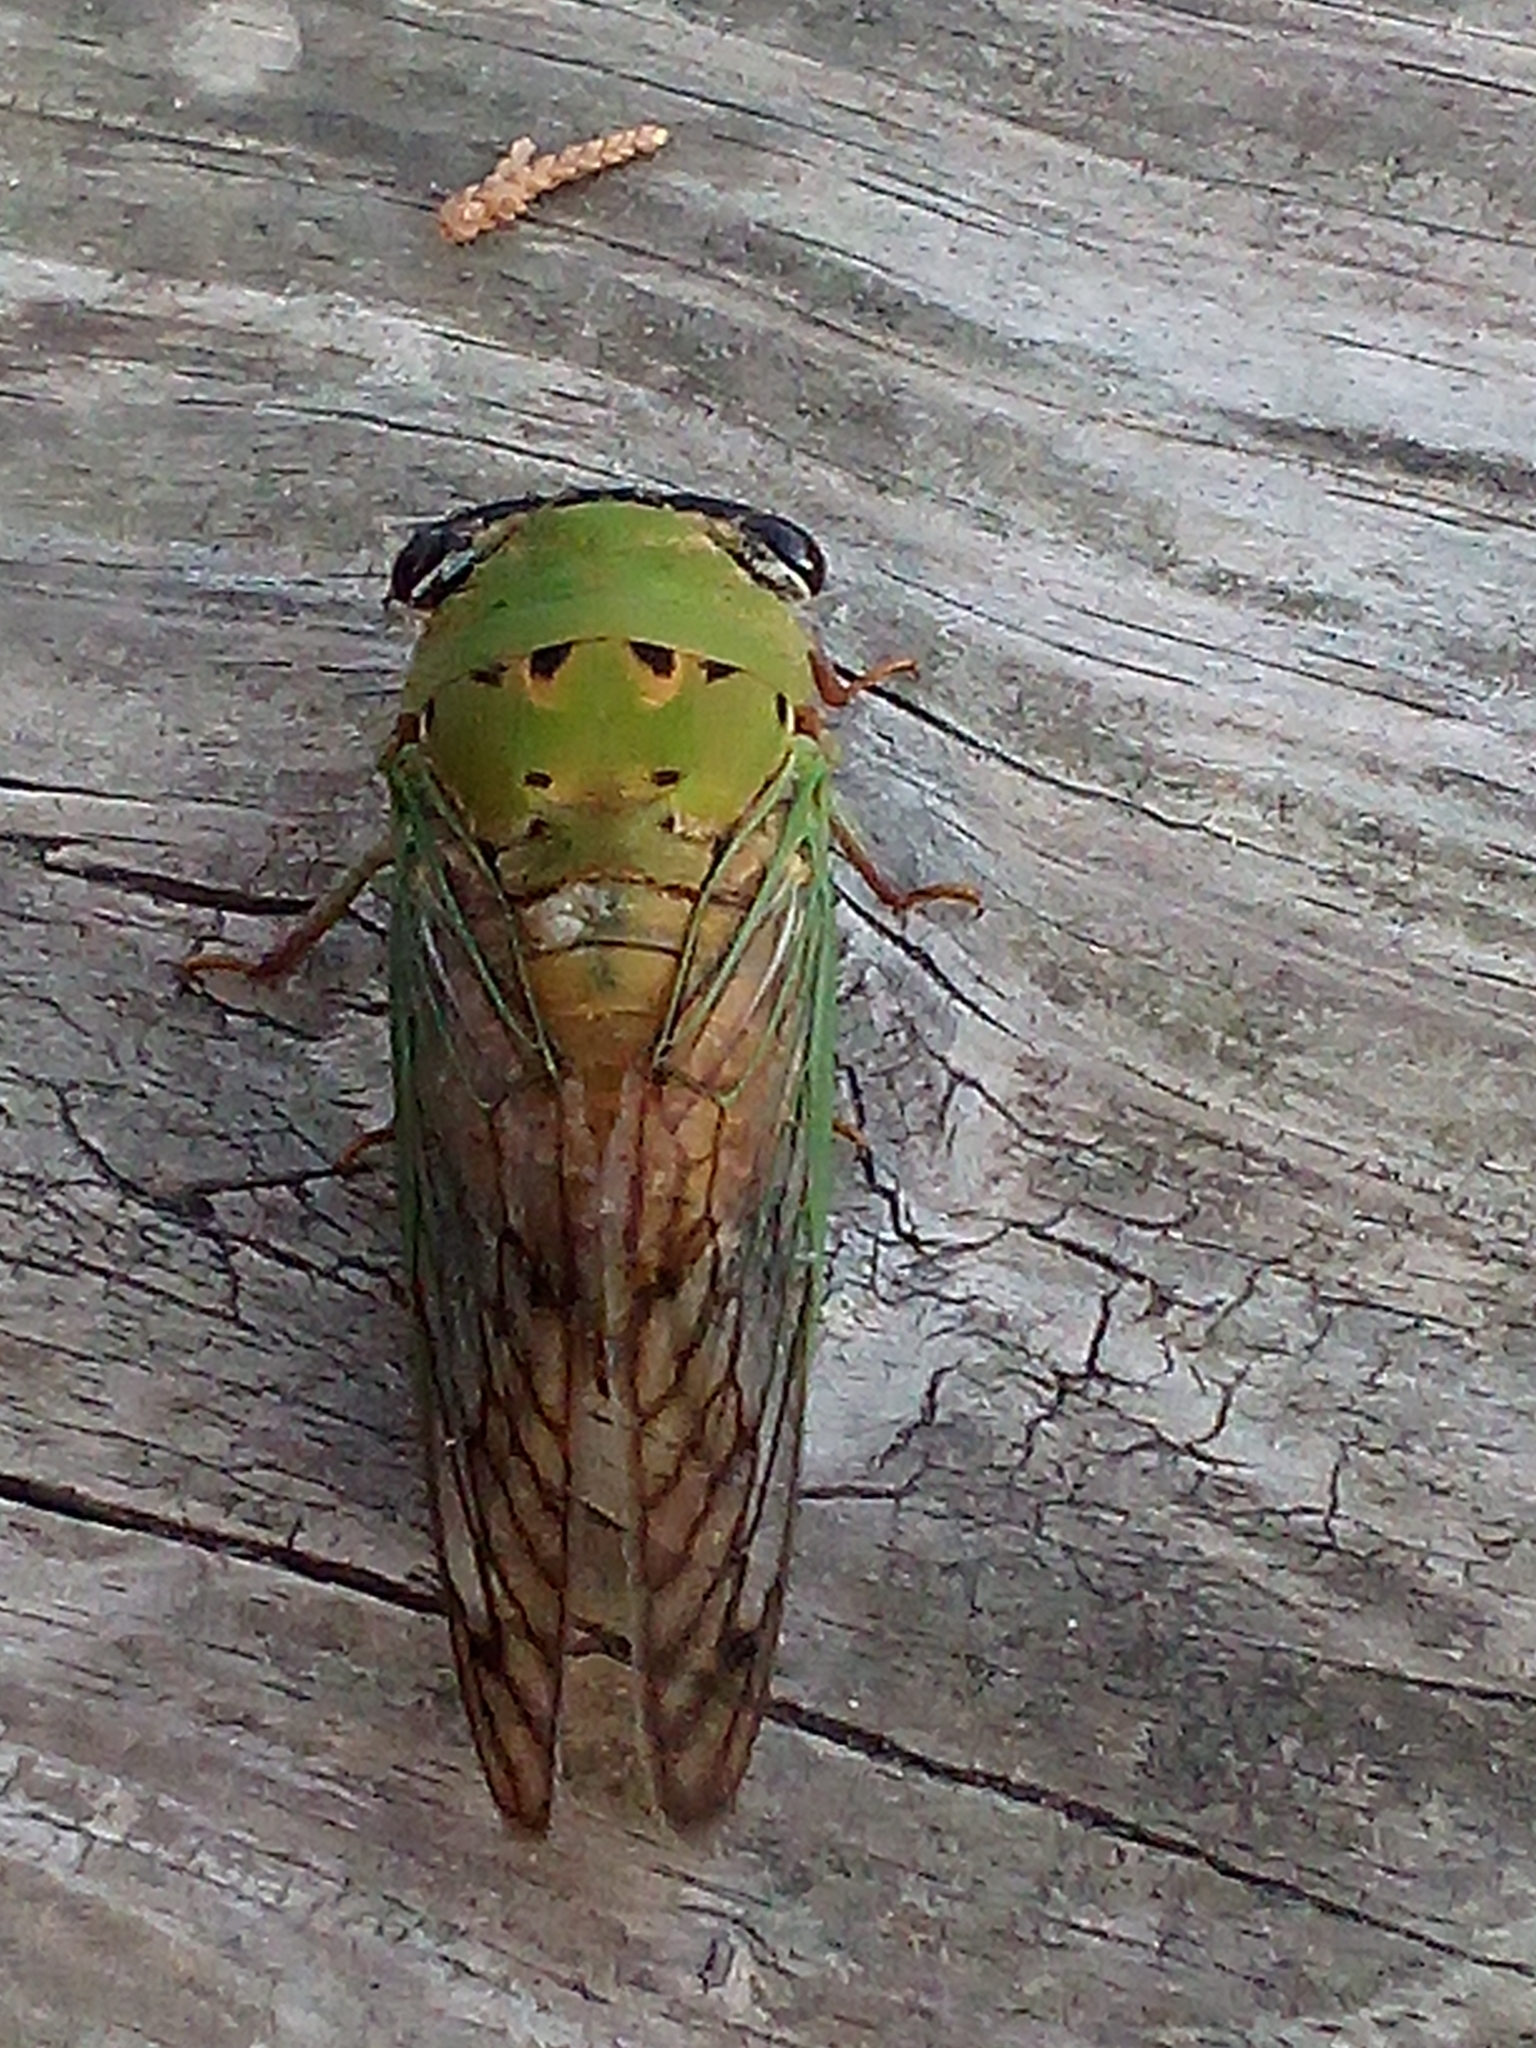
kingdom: Animalia
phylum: Arthropoda
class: Insecta
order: Hemiptera
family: Cicadidae
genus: Neotibicen
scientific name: Neotibicen superbus
